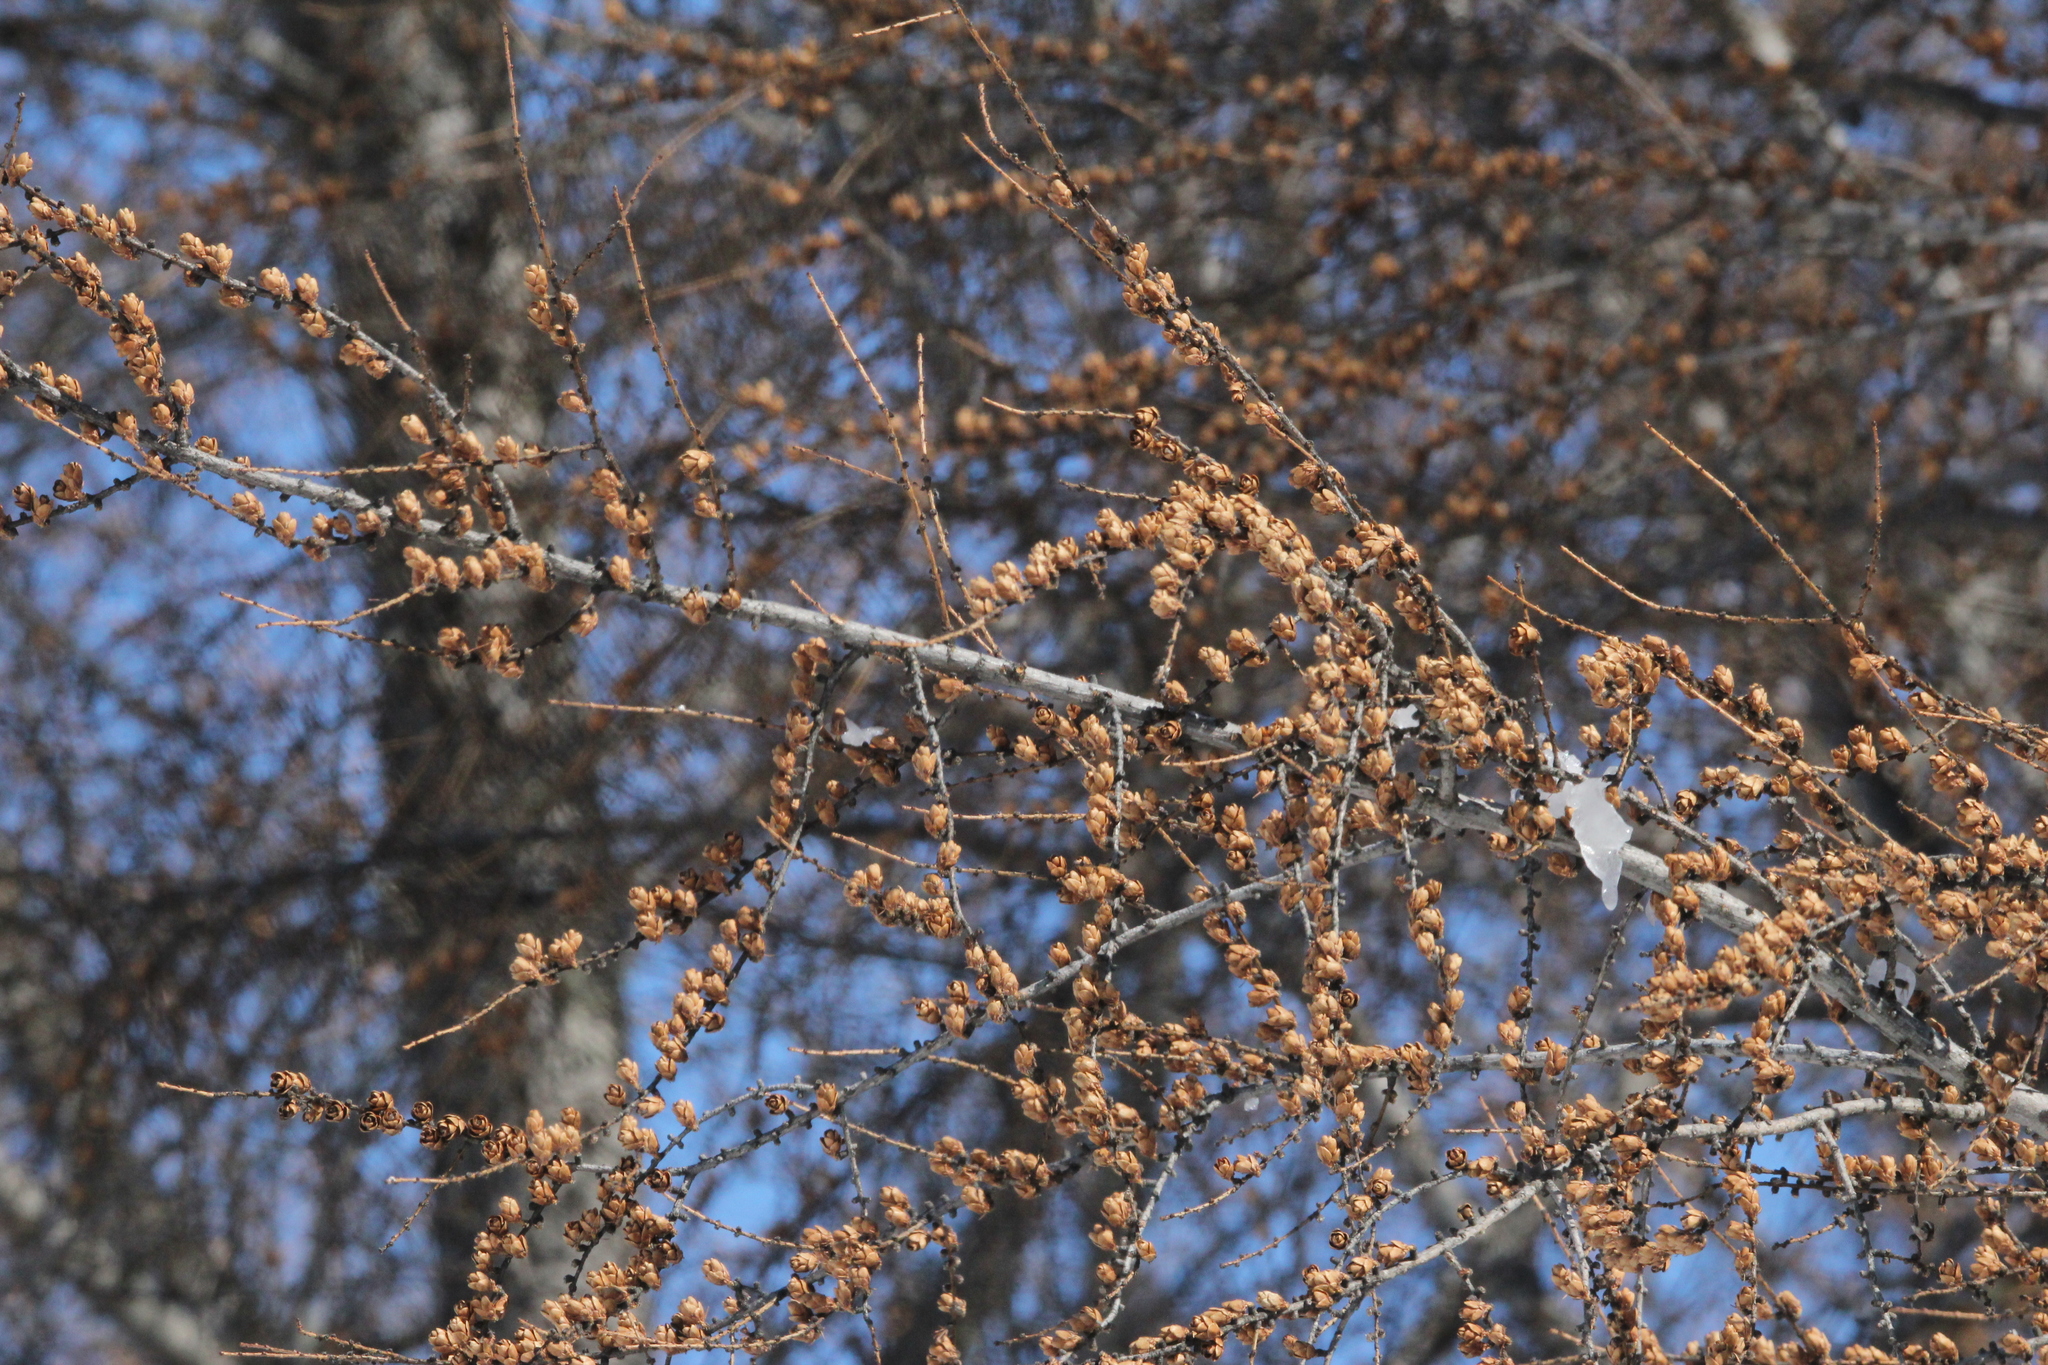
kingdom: Plantae
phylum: Tracheophyta
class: Pinopsida
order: Pinales
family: Pinaceae
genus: Larix
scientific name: Larix laricina
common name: American larch
